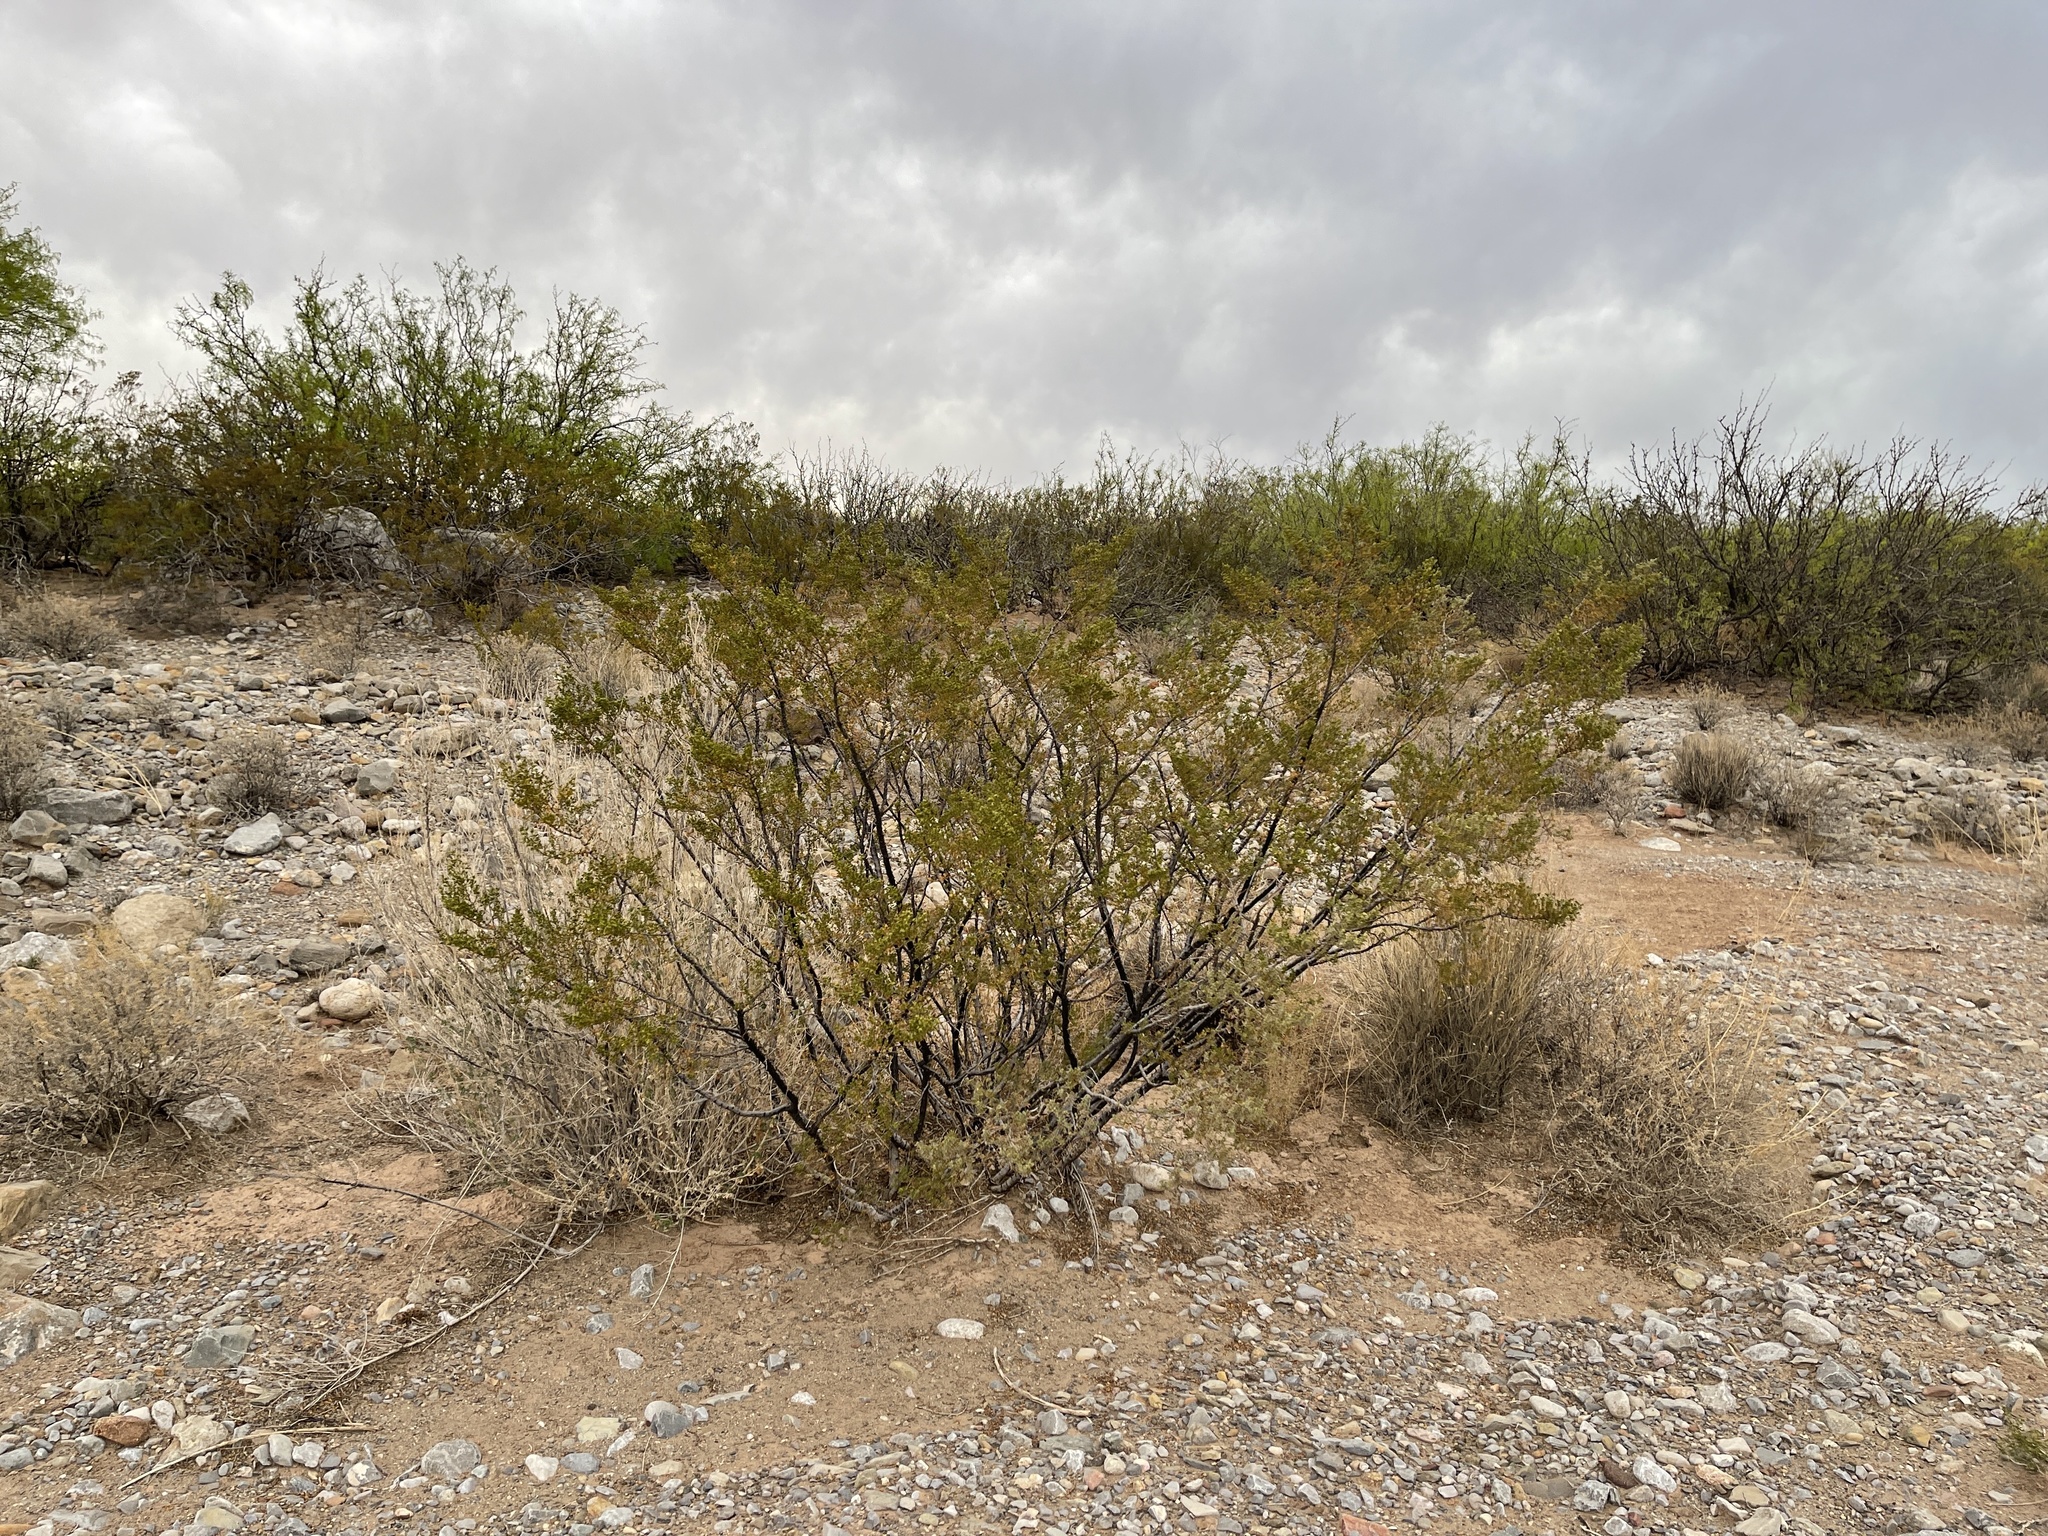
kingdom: Plantae
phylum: Tracheophyta
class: Magnoliopsida
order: Zygophyllales
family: Zygophyllaceae
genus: Larrea
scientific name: Larrea tridentata
